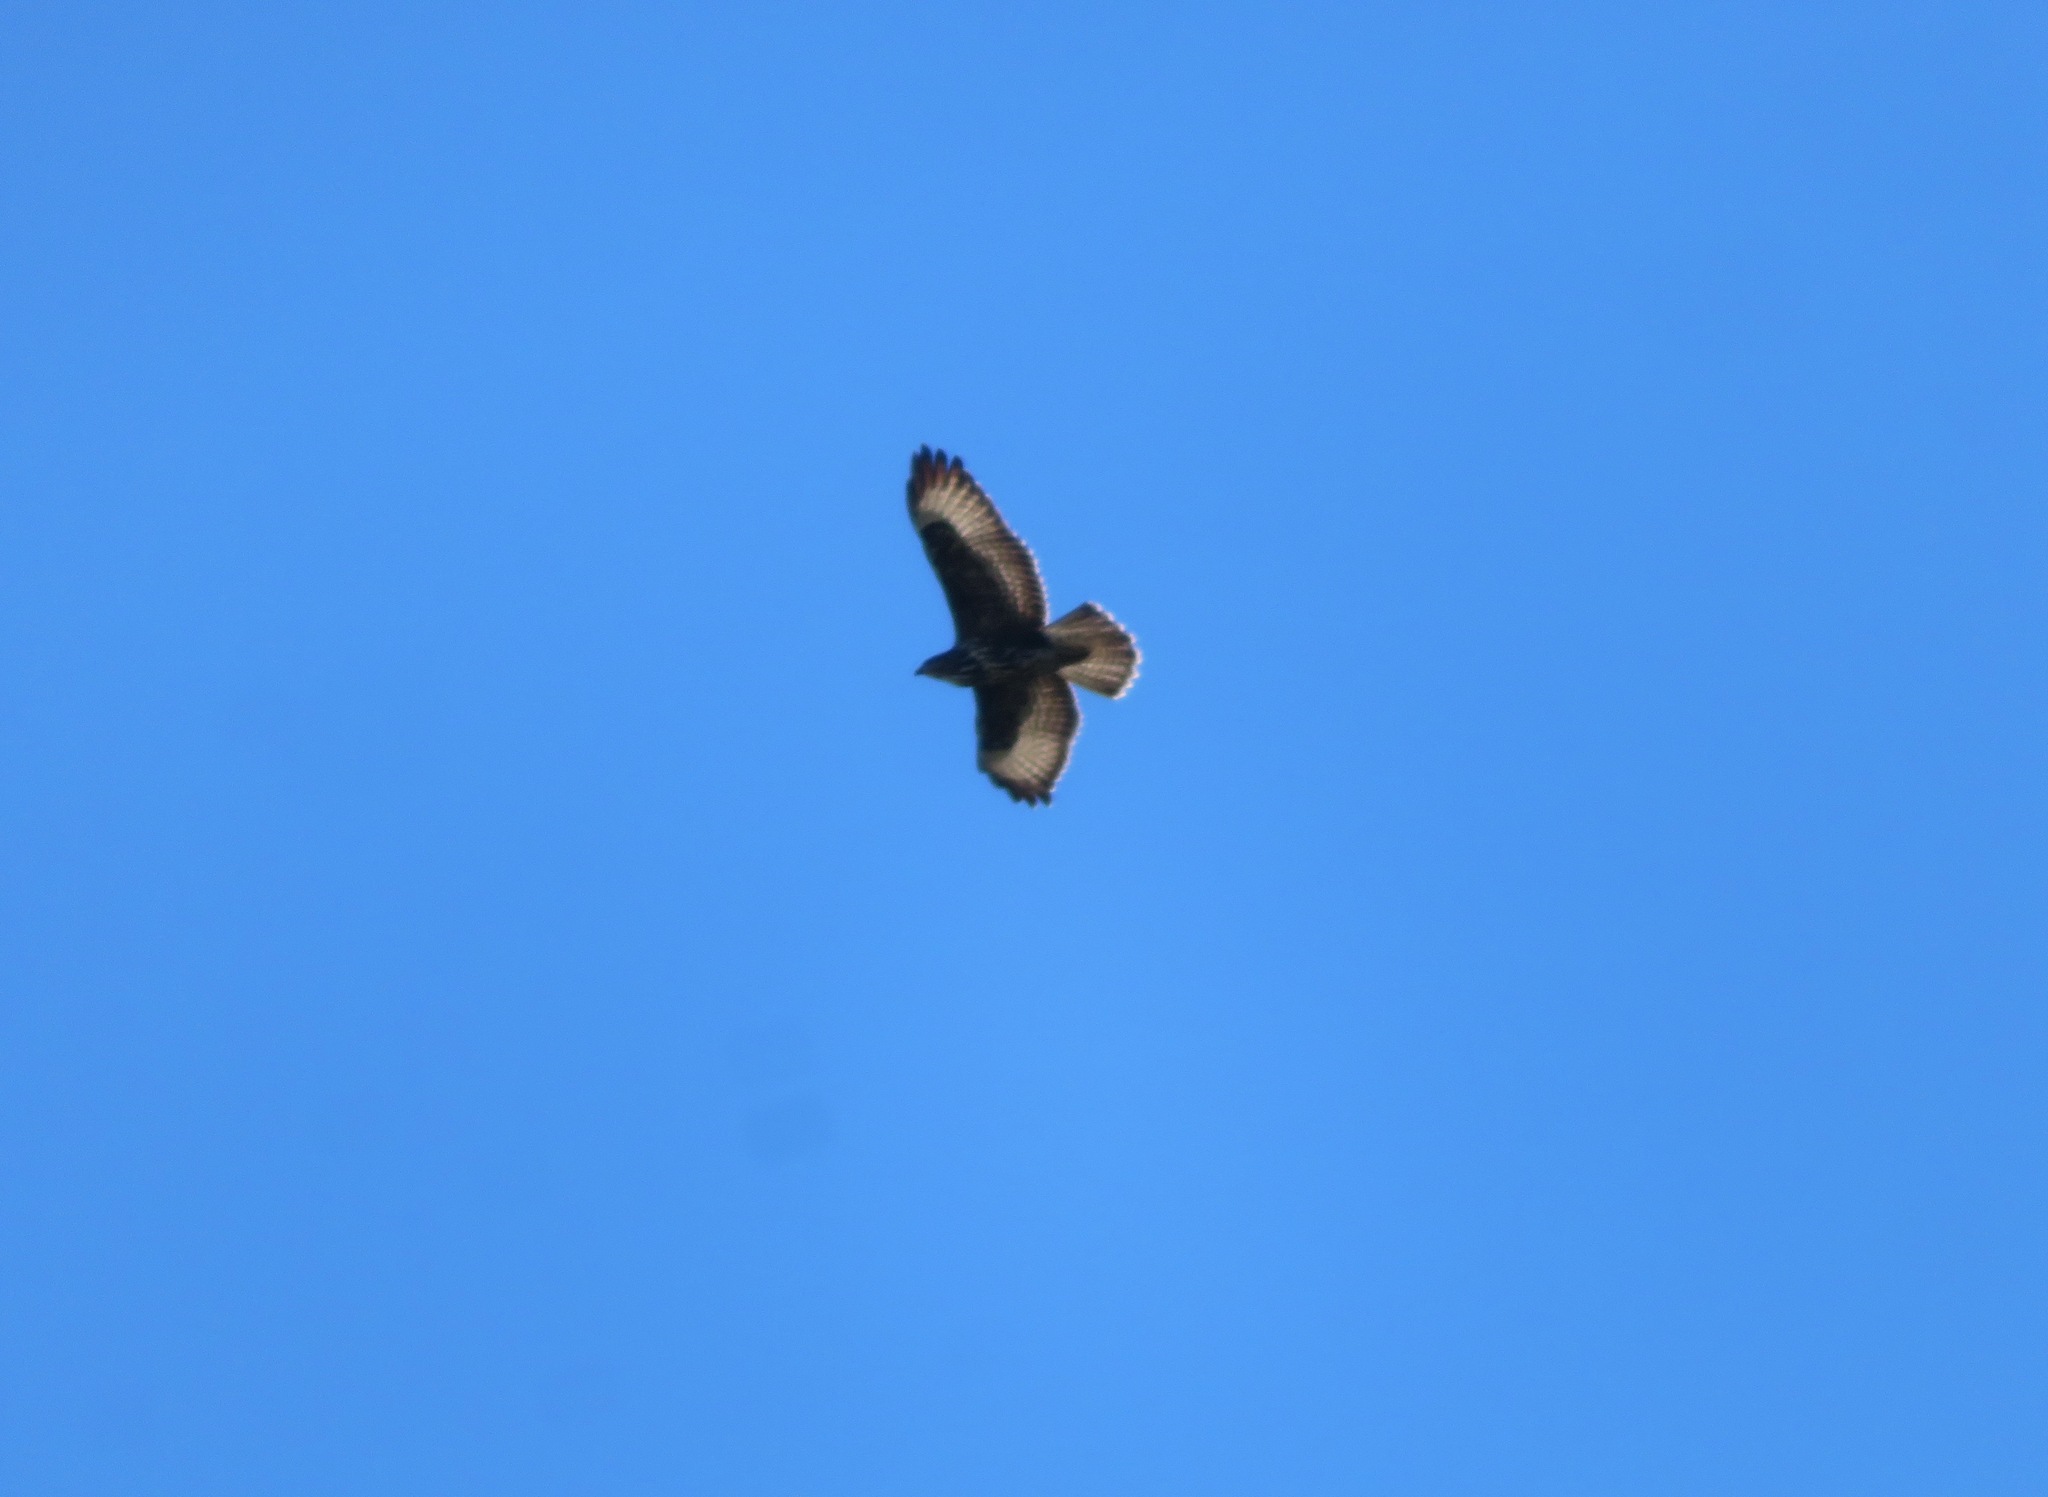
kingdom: Animalia
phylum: Chordata
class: Aves
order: Accipitriformes
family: Accipitridae
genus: Buteo
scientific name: Buteo buteo
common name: Common buzzard
